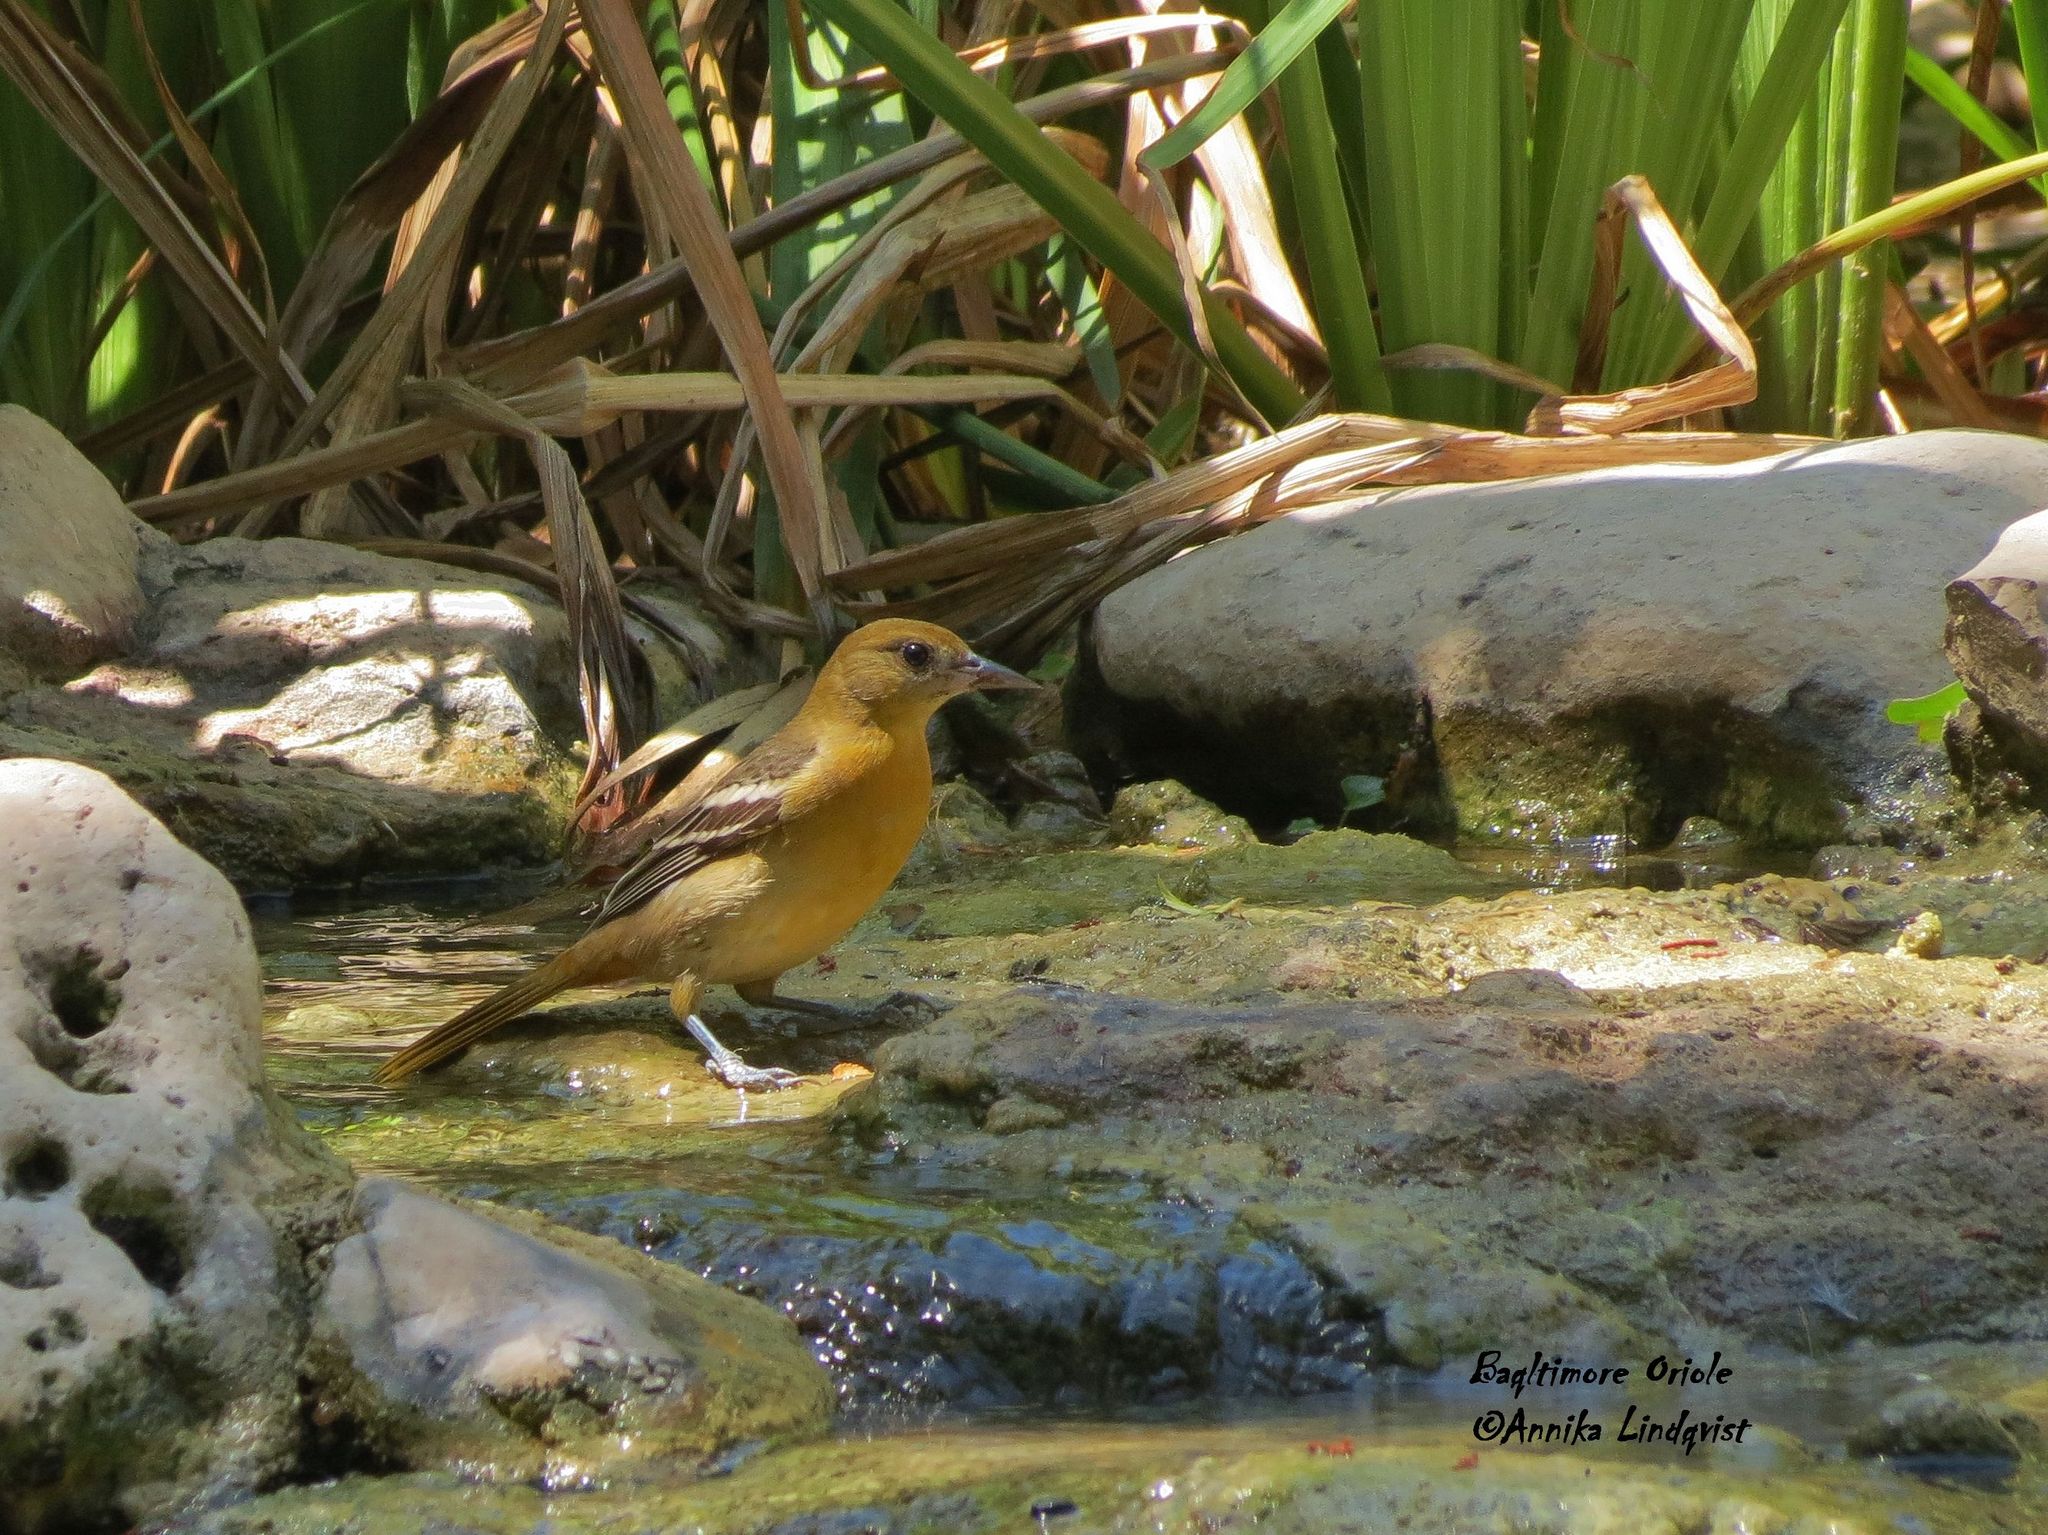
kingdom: Animalia
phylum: Chordata
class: Aves
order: Passeriformes
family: Icteridae
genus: Icterus
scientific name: Icterus galbula
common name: Baltimore oriole
